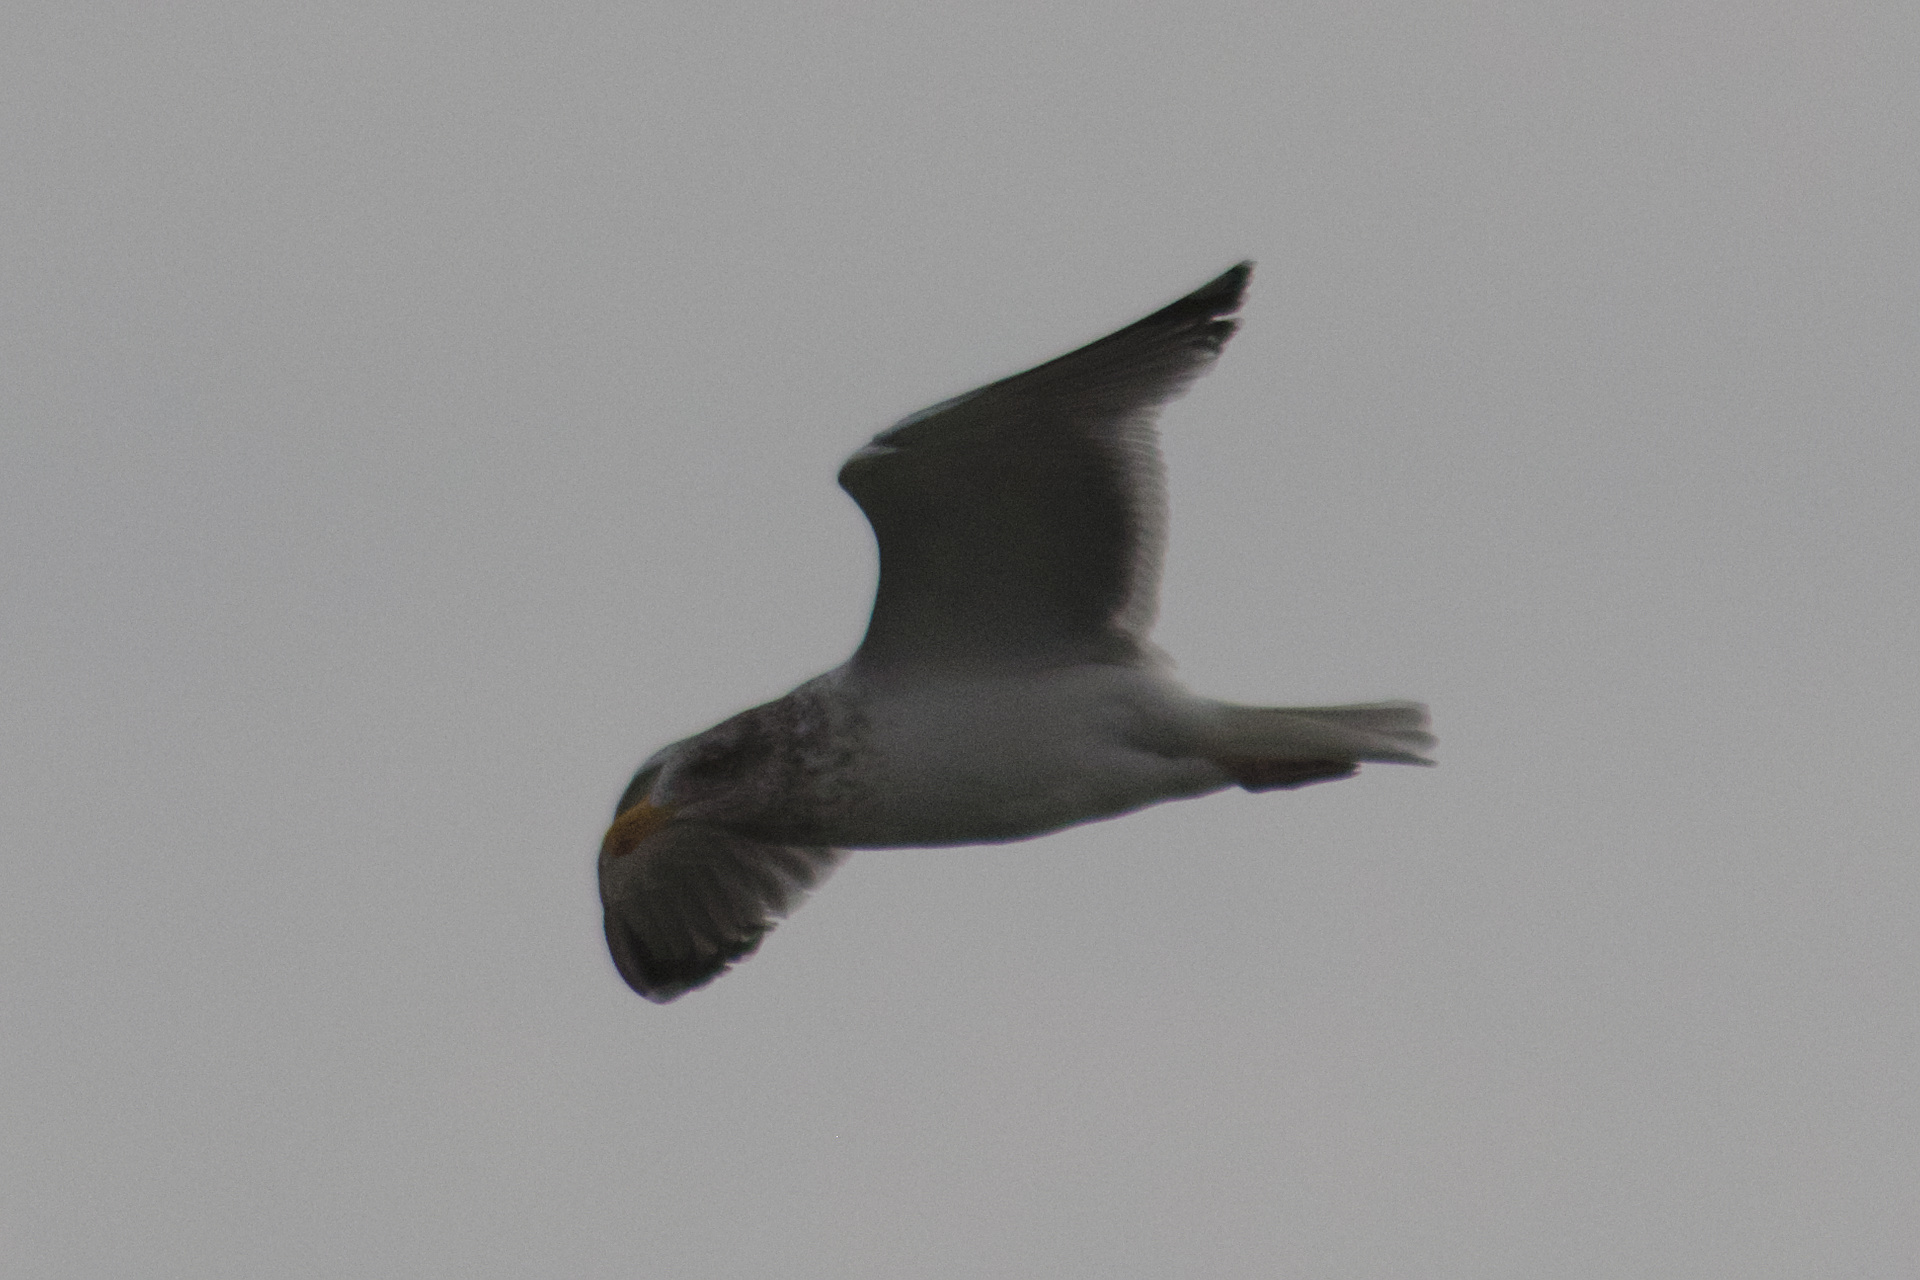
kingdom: Animalia
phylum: Chordata
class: Aves
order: Charadriiformes
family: Laridae
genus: Larus
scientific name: Larus argentatus
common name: Herring gull
